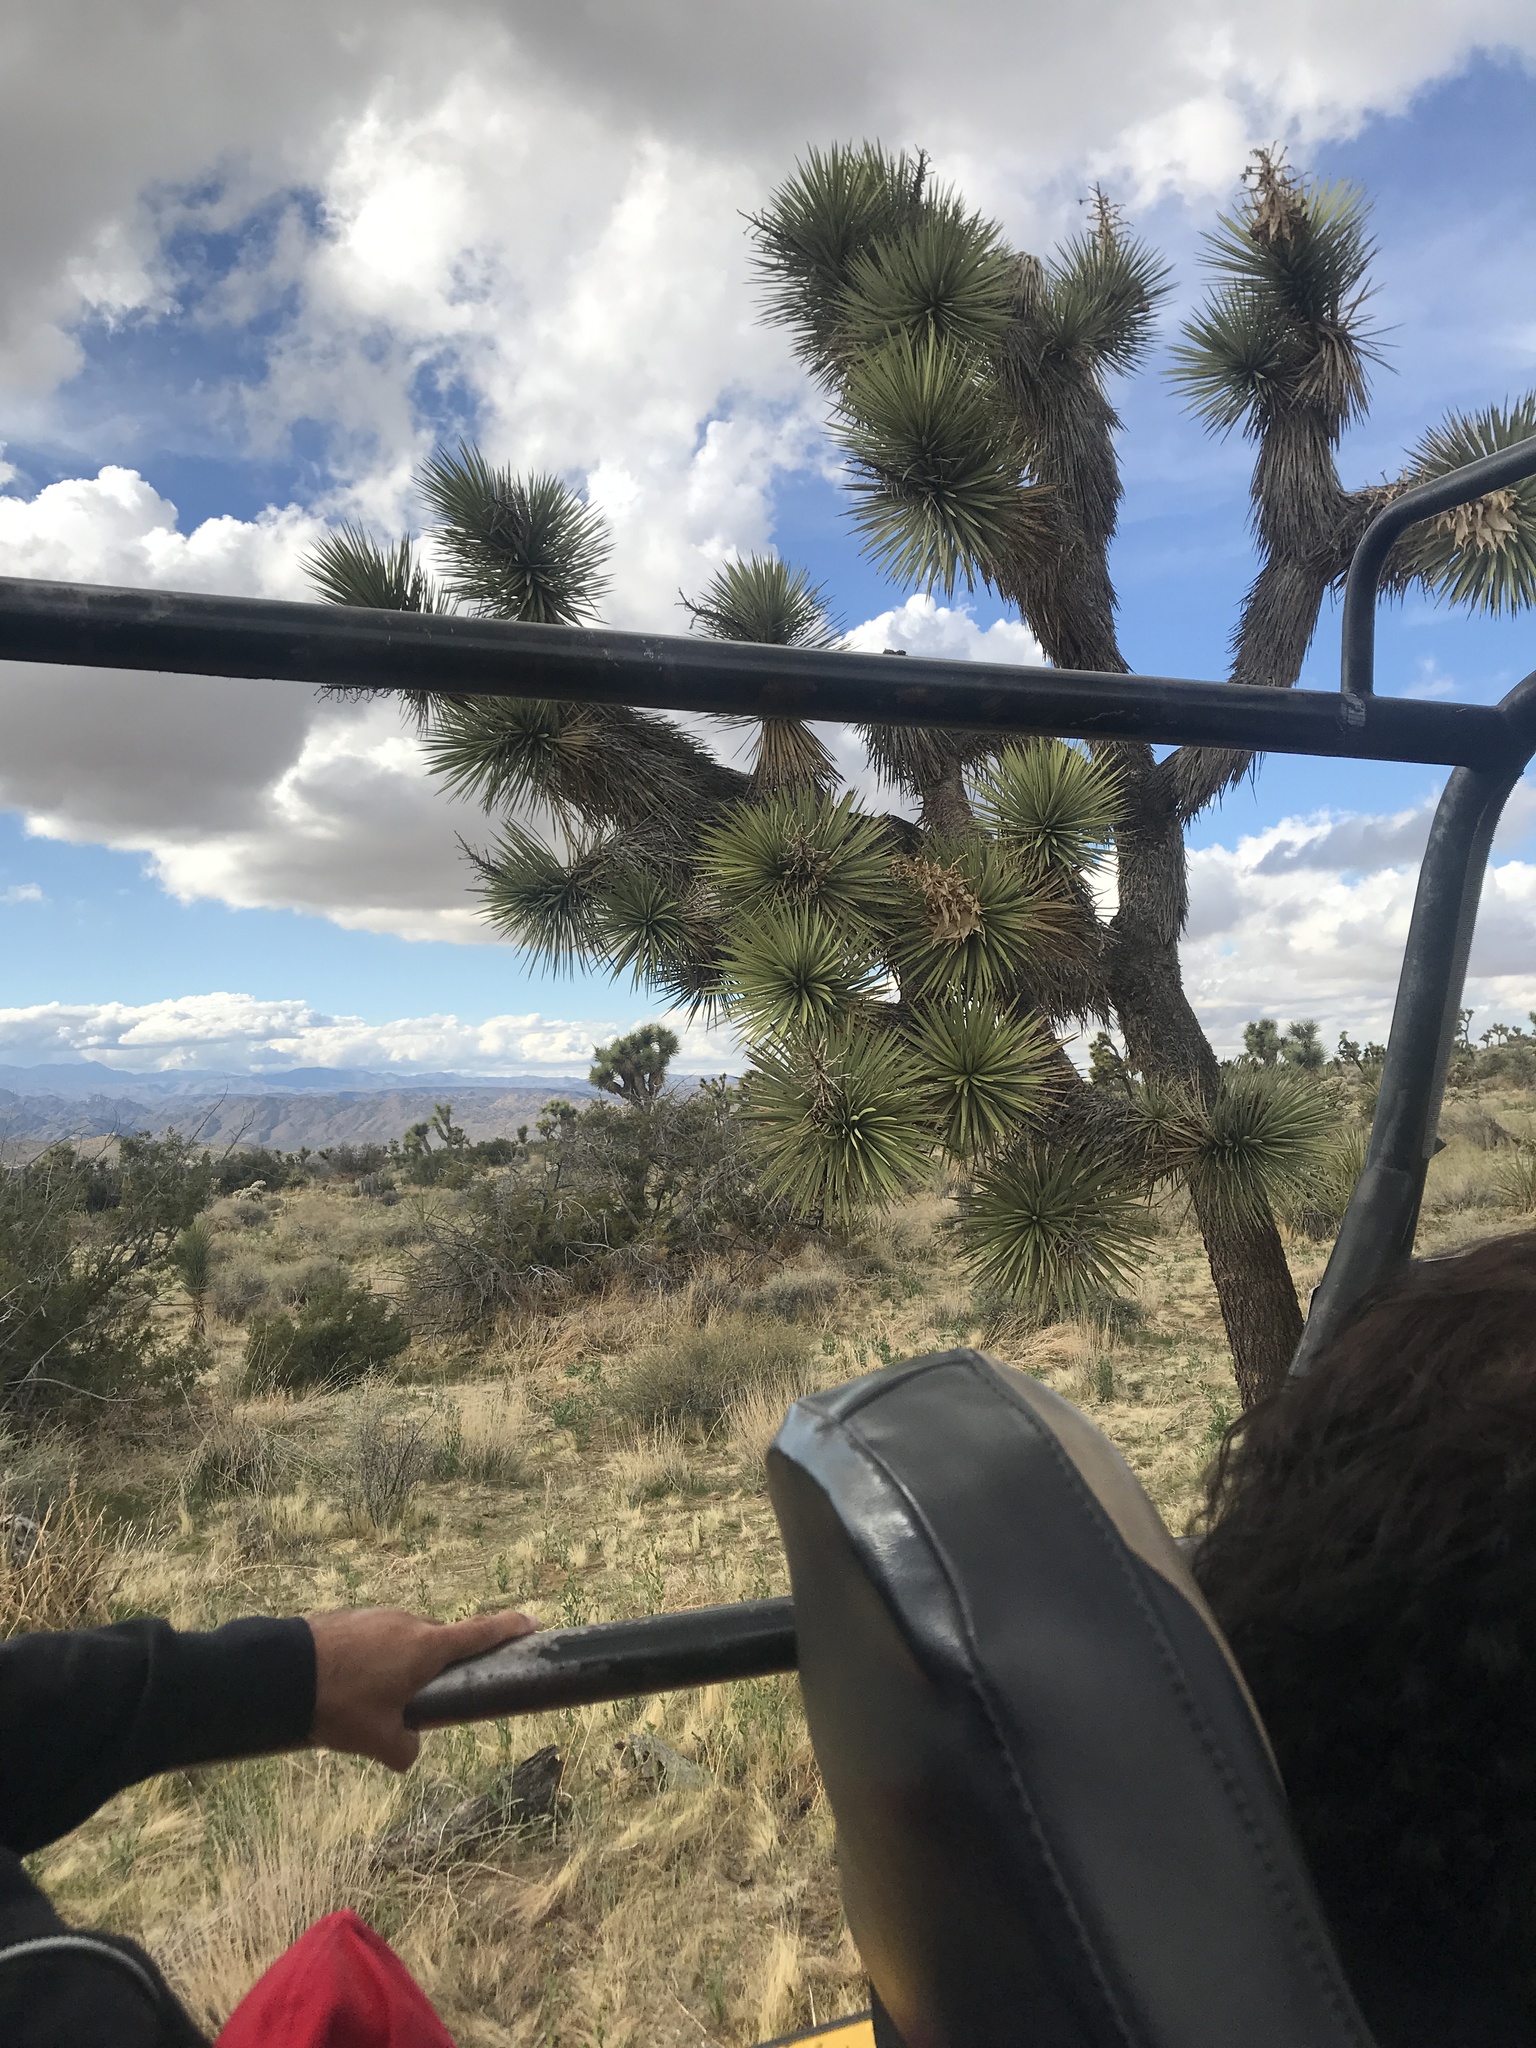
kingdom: Plantae
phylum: Tracheophyta
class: Liliopsida
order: Asparagales
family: Asparagaceae
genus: Yucca
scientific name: Yucca brevifolia
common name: Joshua tree
